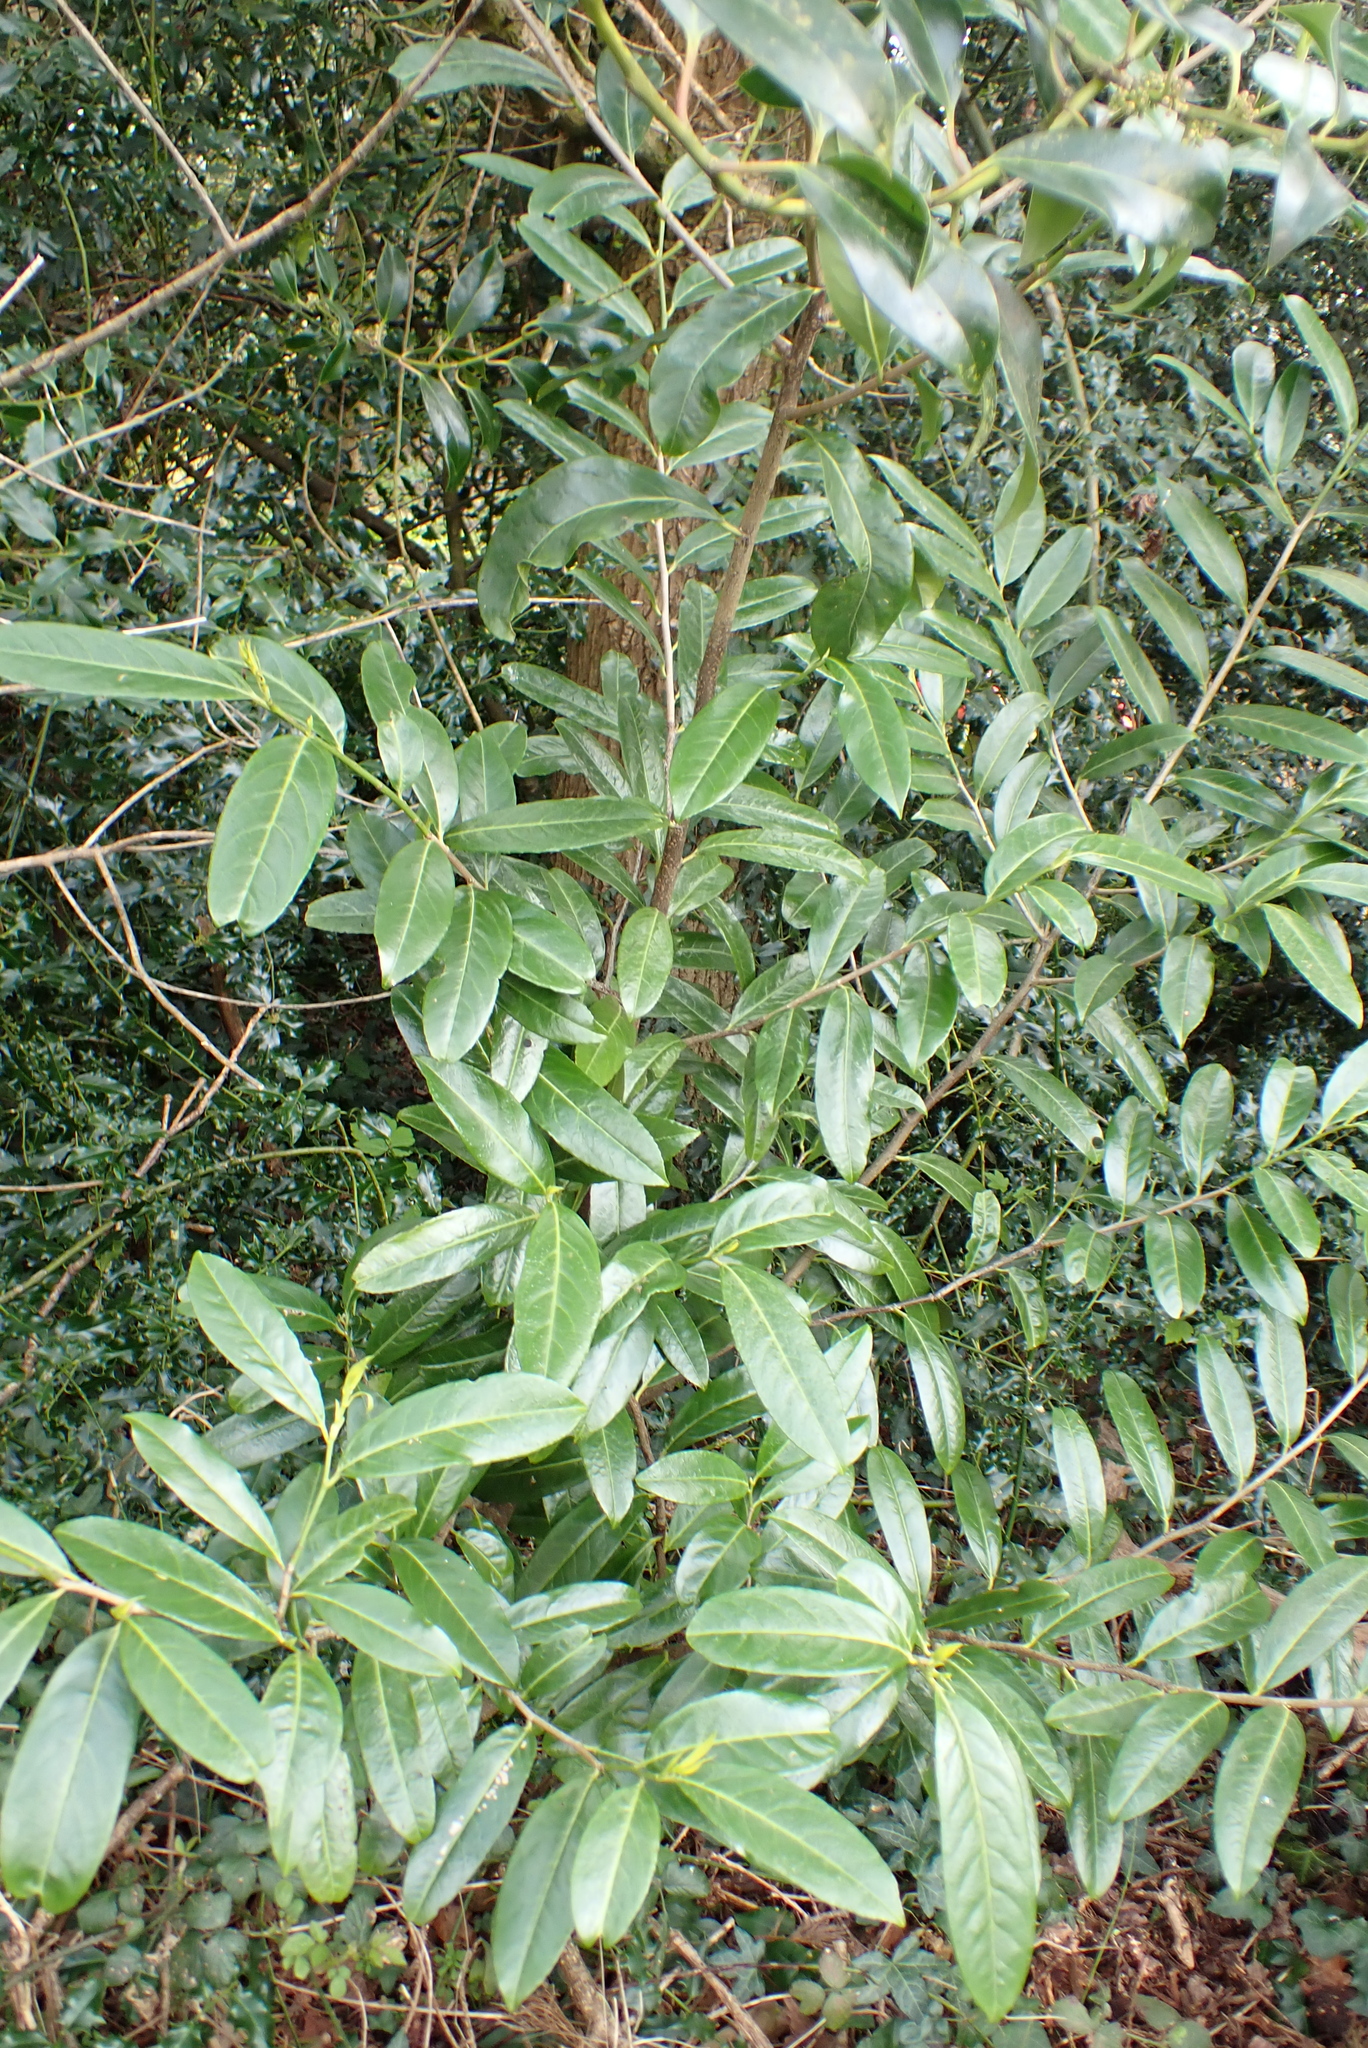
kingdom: Plantae
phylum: Tracheophyta
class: Magnoliopsida
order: Rosales
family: Rosaceae
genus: Prunus
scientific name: Prunus laurocerasus
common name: Cherry laurel
